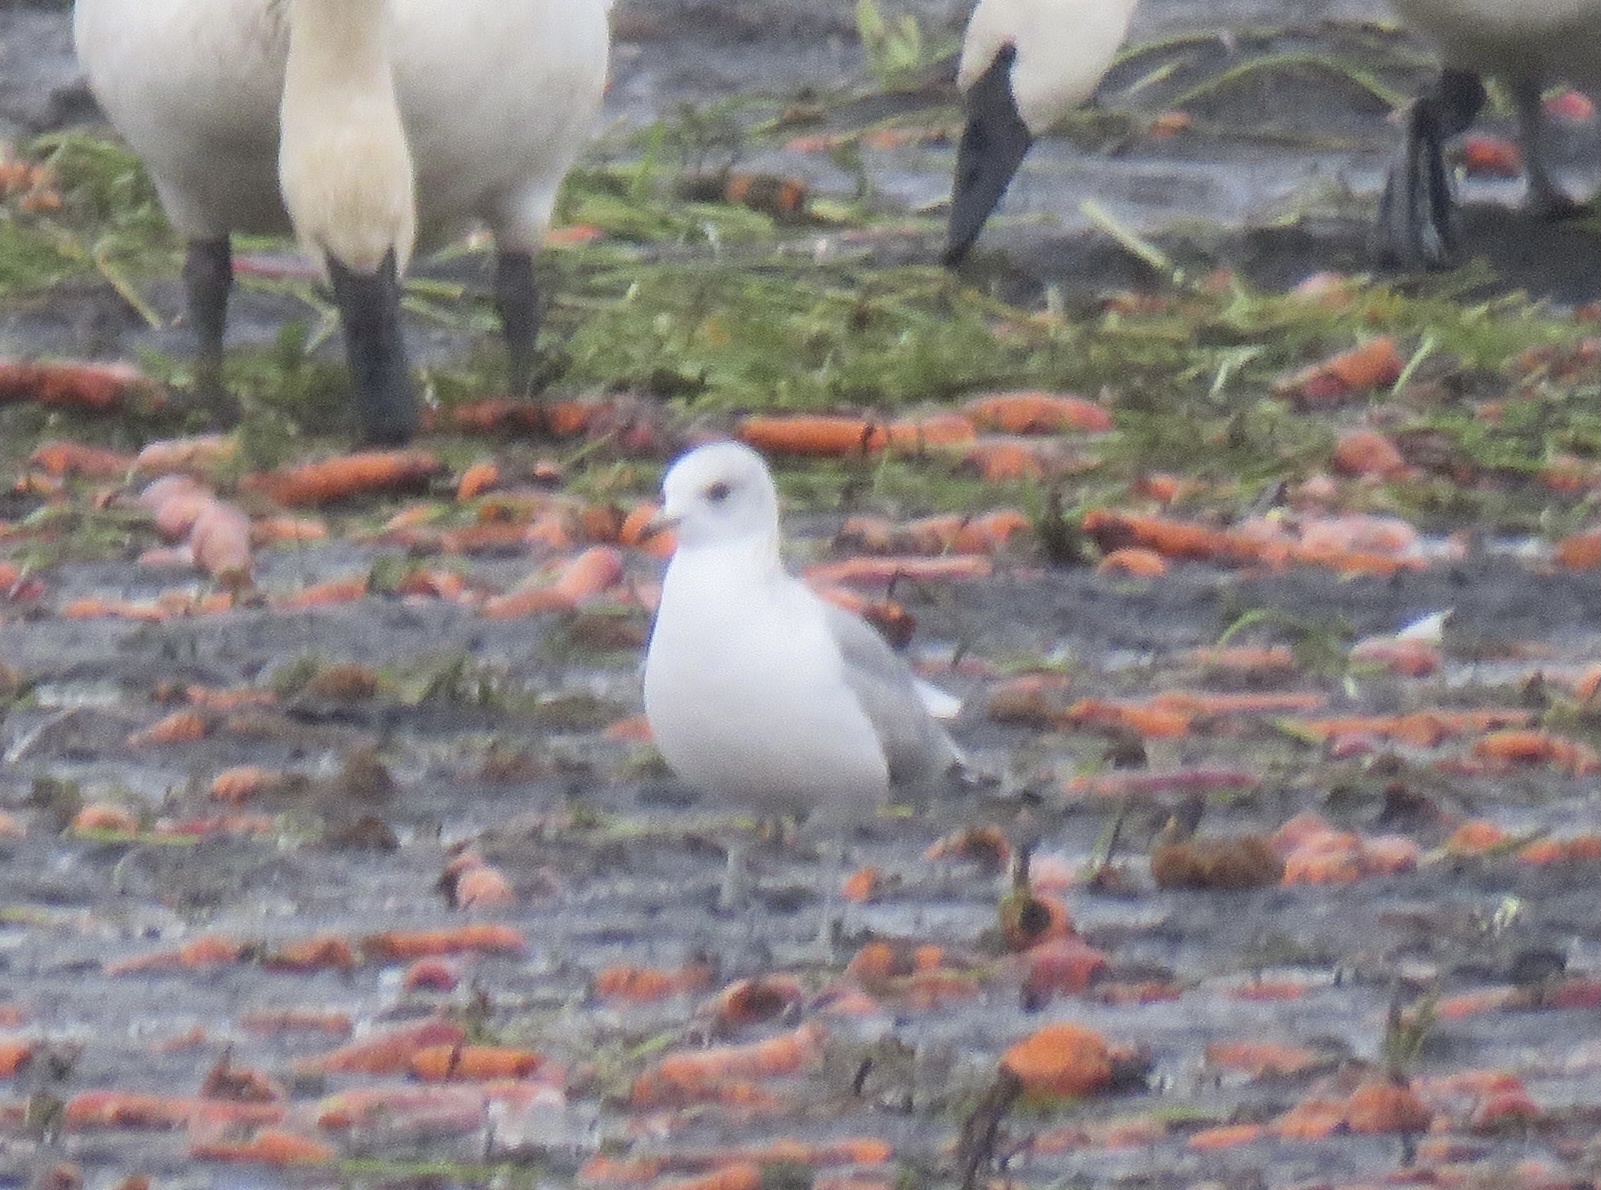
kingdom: Animalia
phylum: Chordata
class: Aves
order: Charadriiformes
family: Laridae
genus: Larus
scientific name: Larus brachyrhynchus
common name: Short-billed gull
